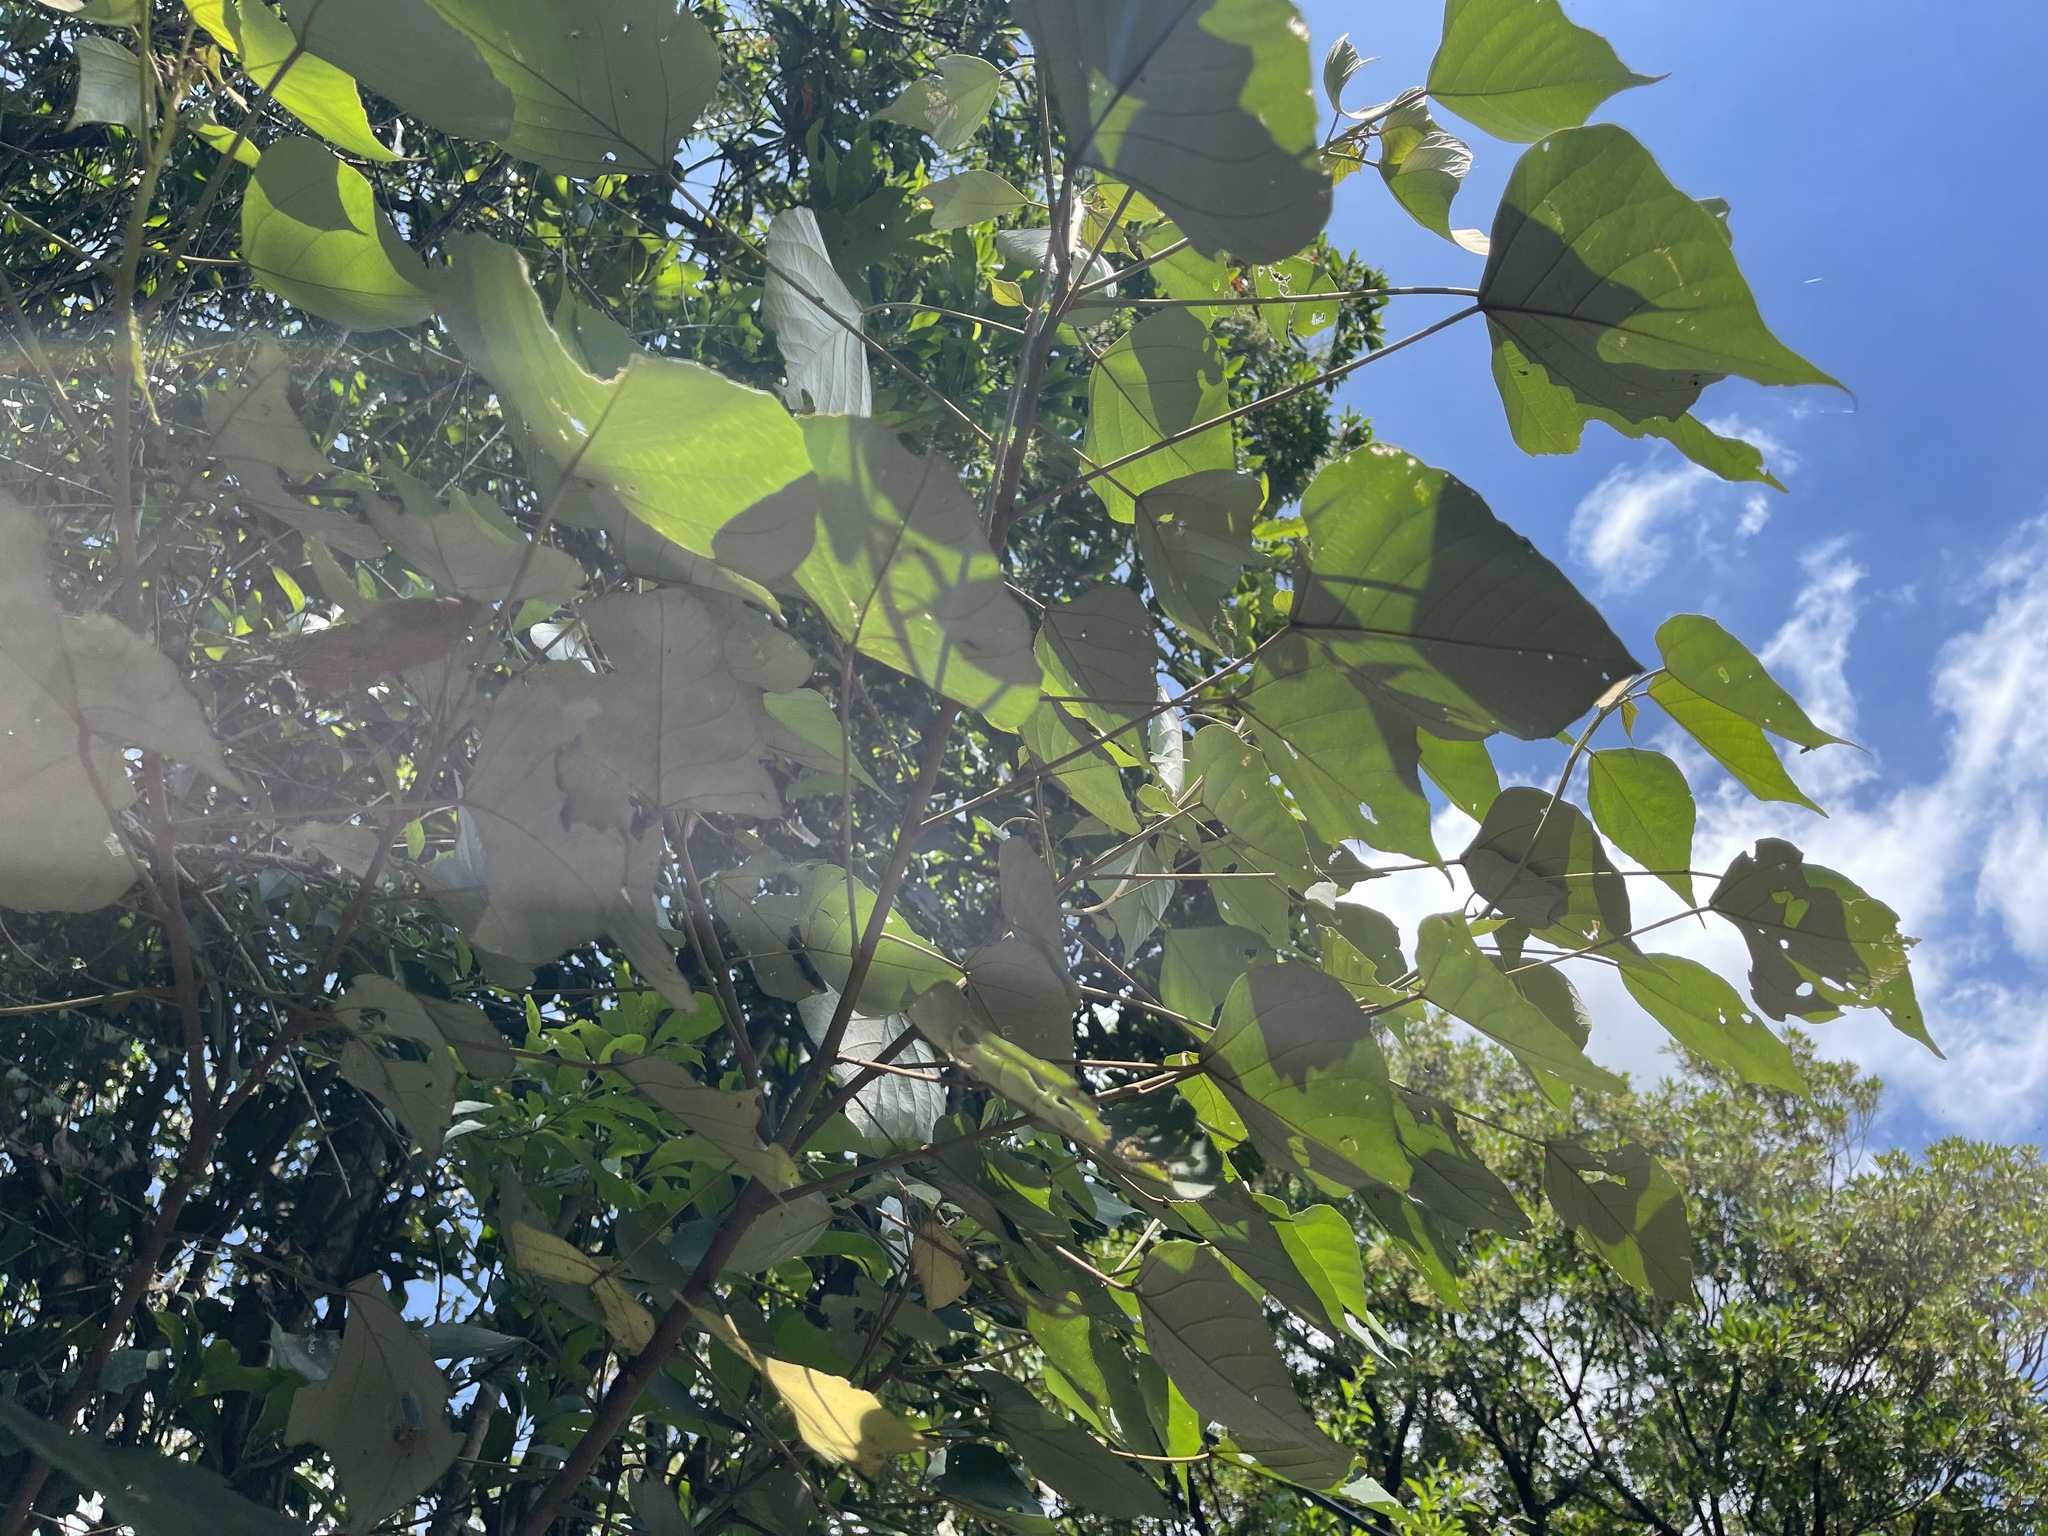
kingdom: Plantae
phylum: Tracheophyta
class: Magnoliopsida
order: Malpighiales
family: Euphorbiaceae
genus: Mallotus
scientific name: Mallotus paniculatus
